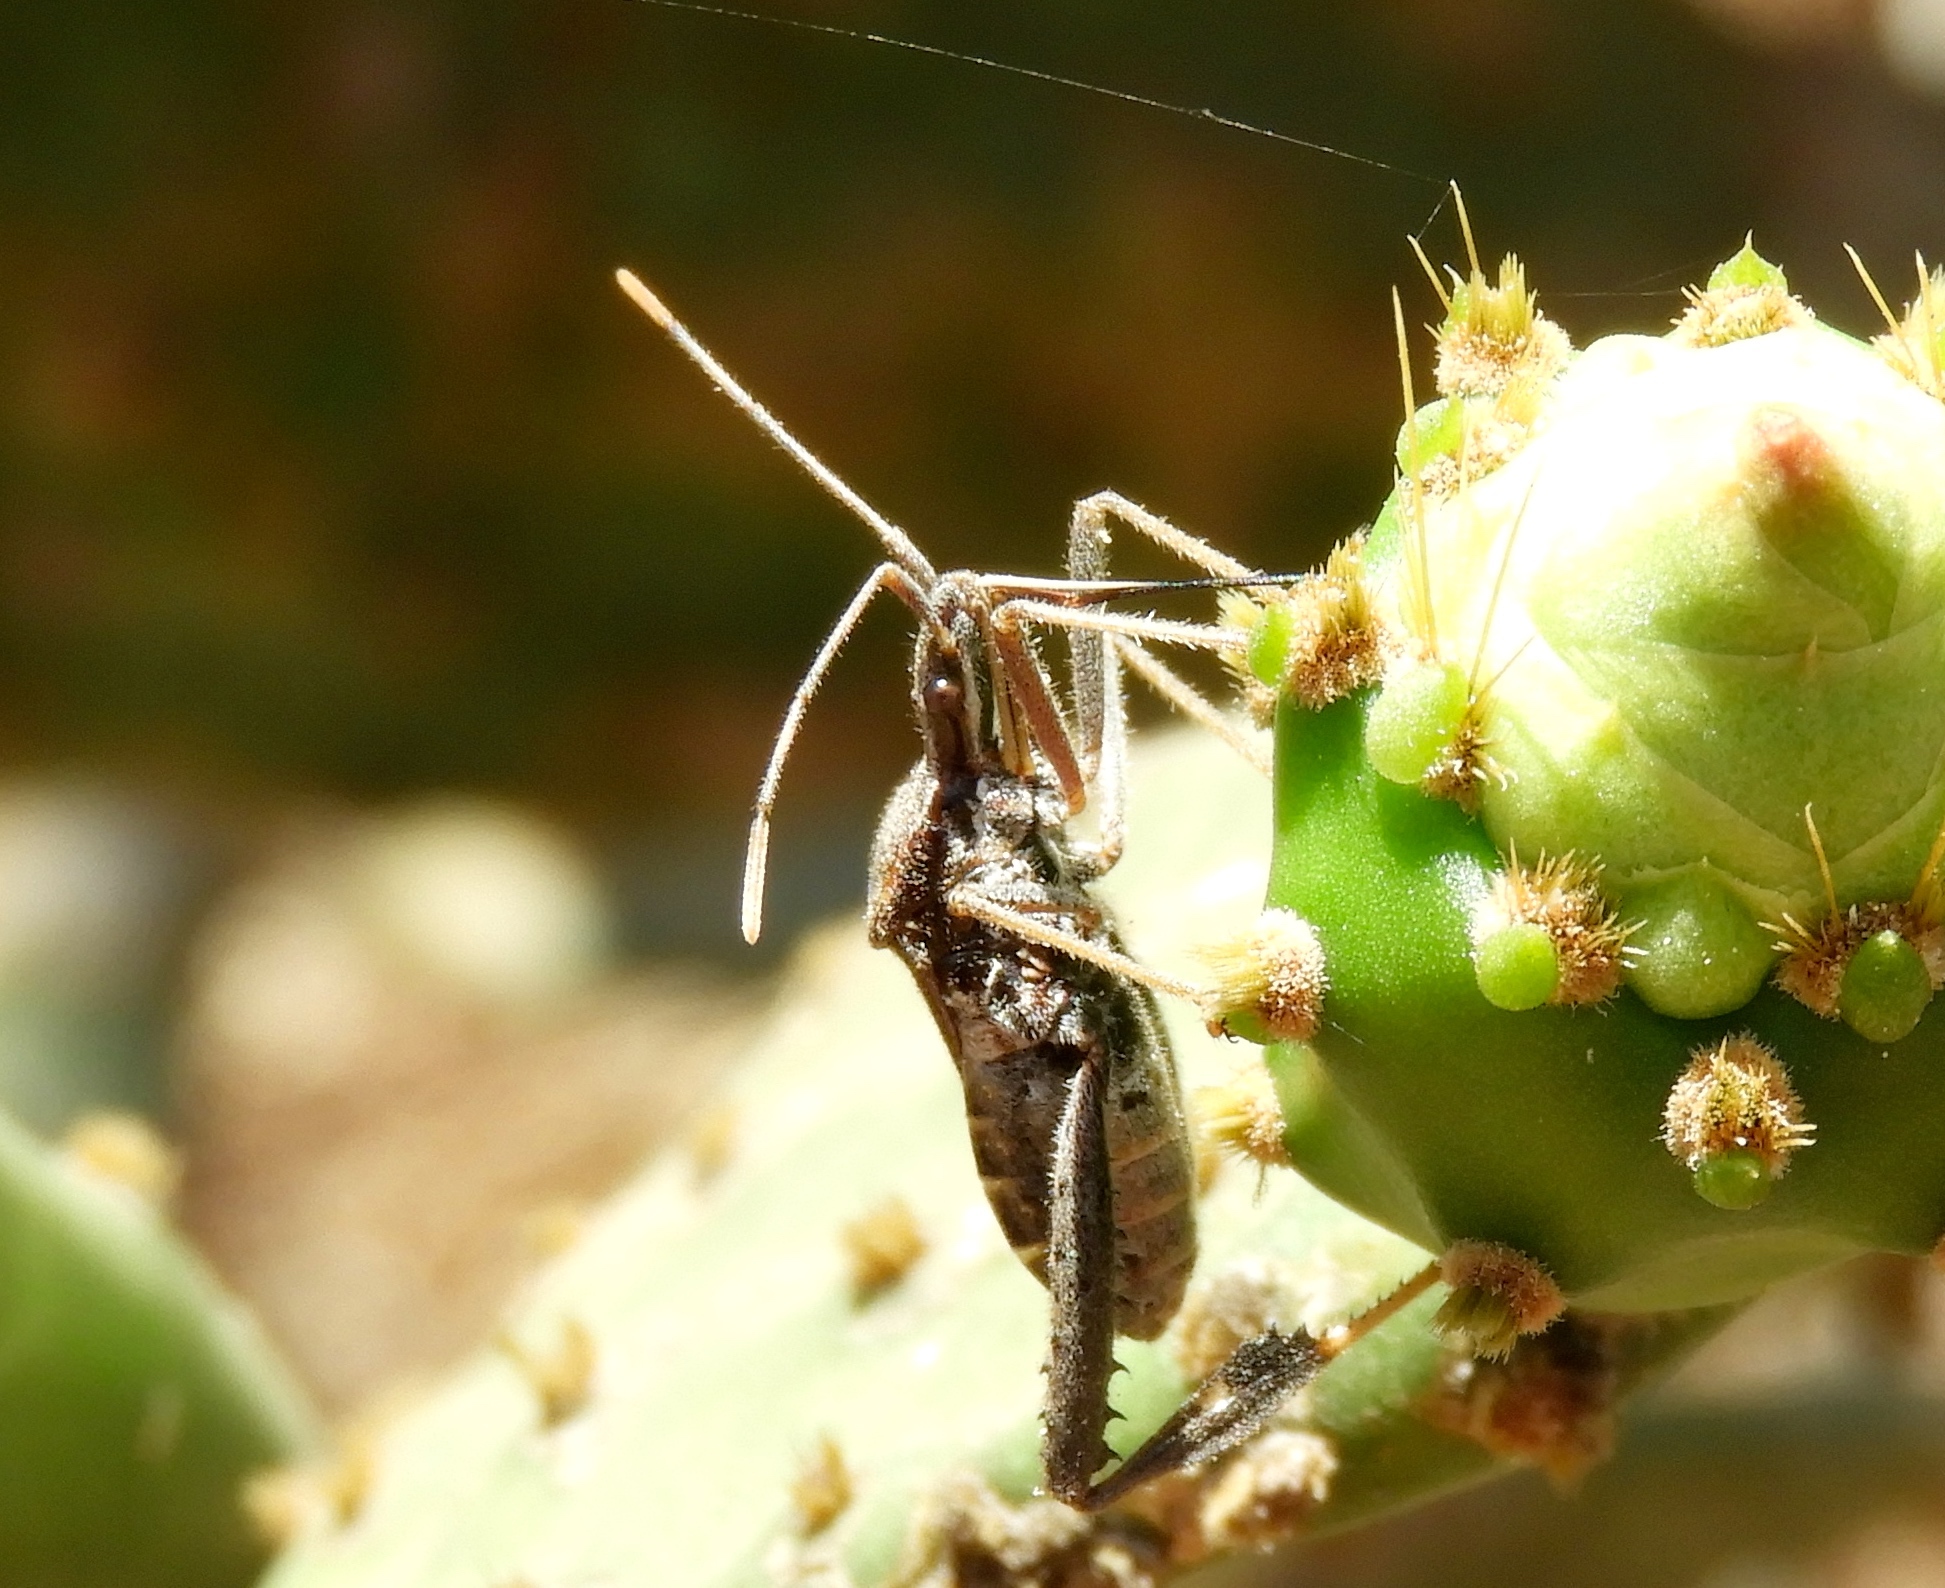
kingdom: Animalia
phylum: Arthropoda
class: Insecta
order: Hemiptera
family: Coreidae
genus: Narnia
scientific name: Narnia
